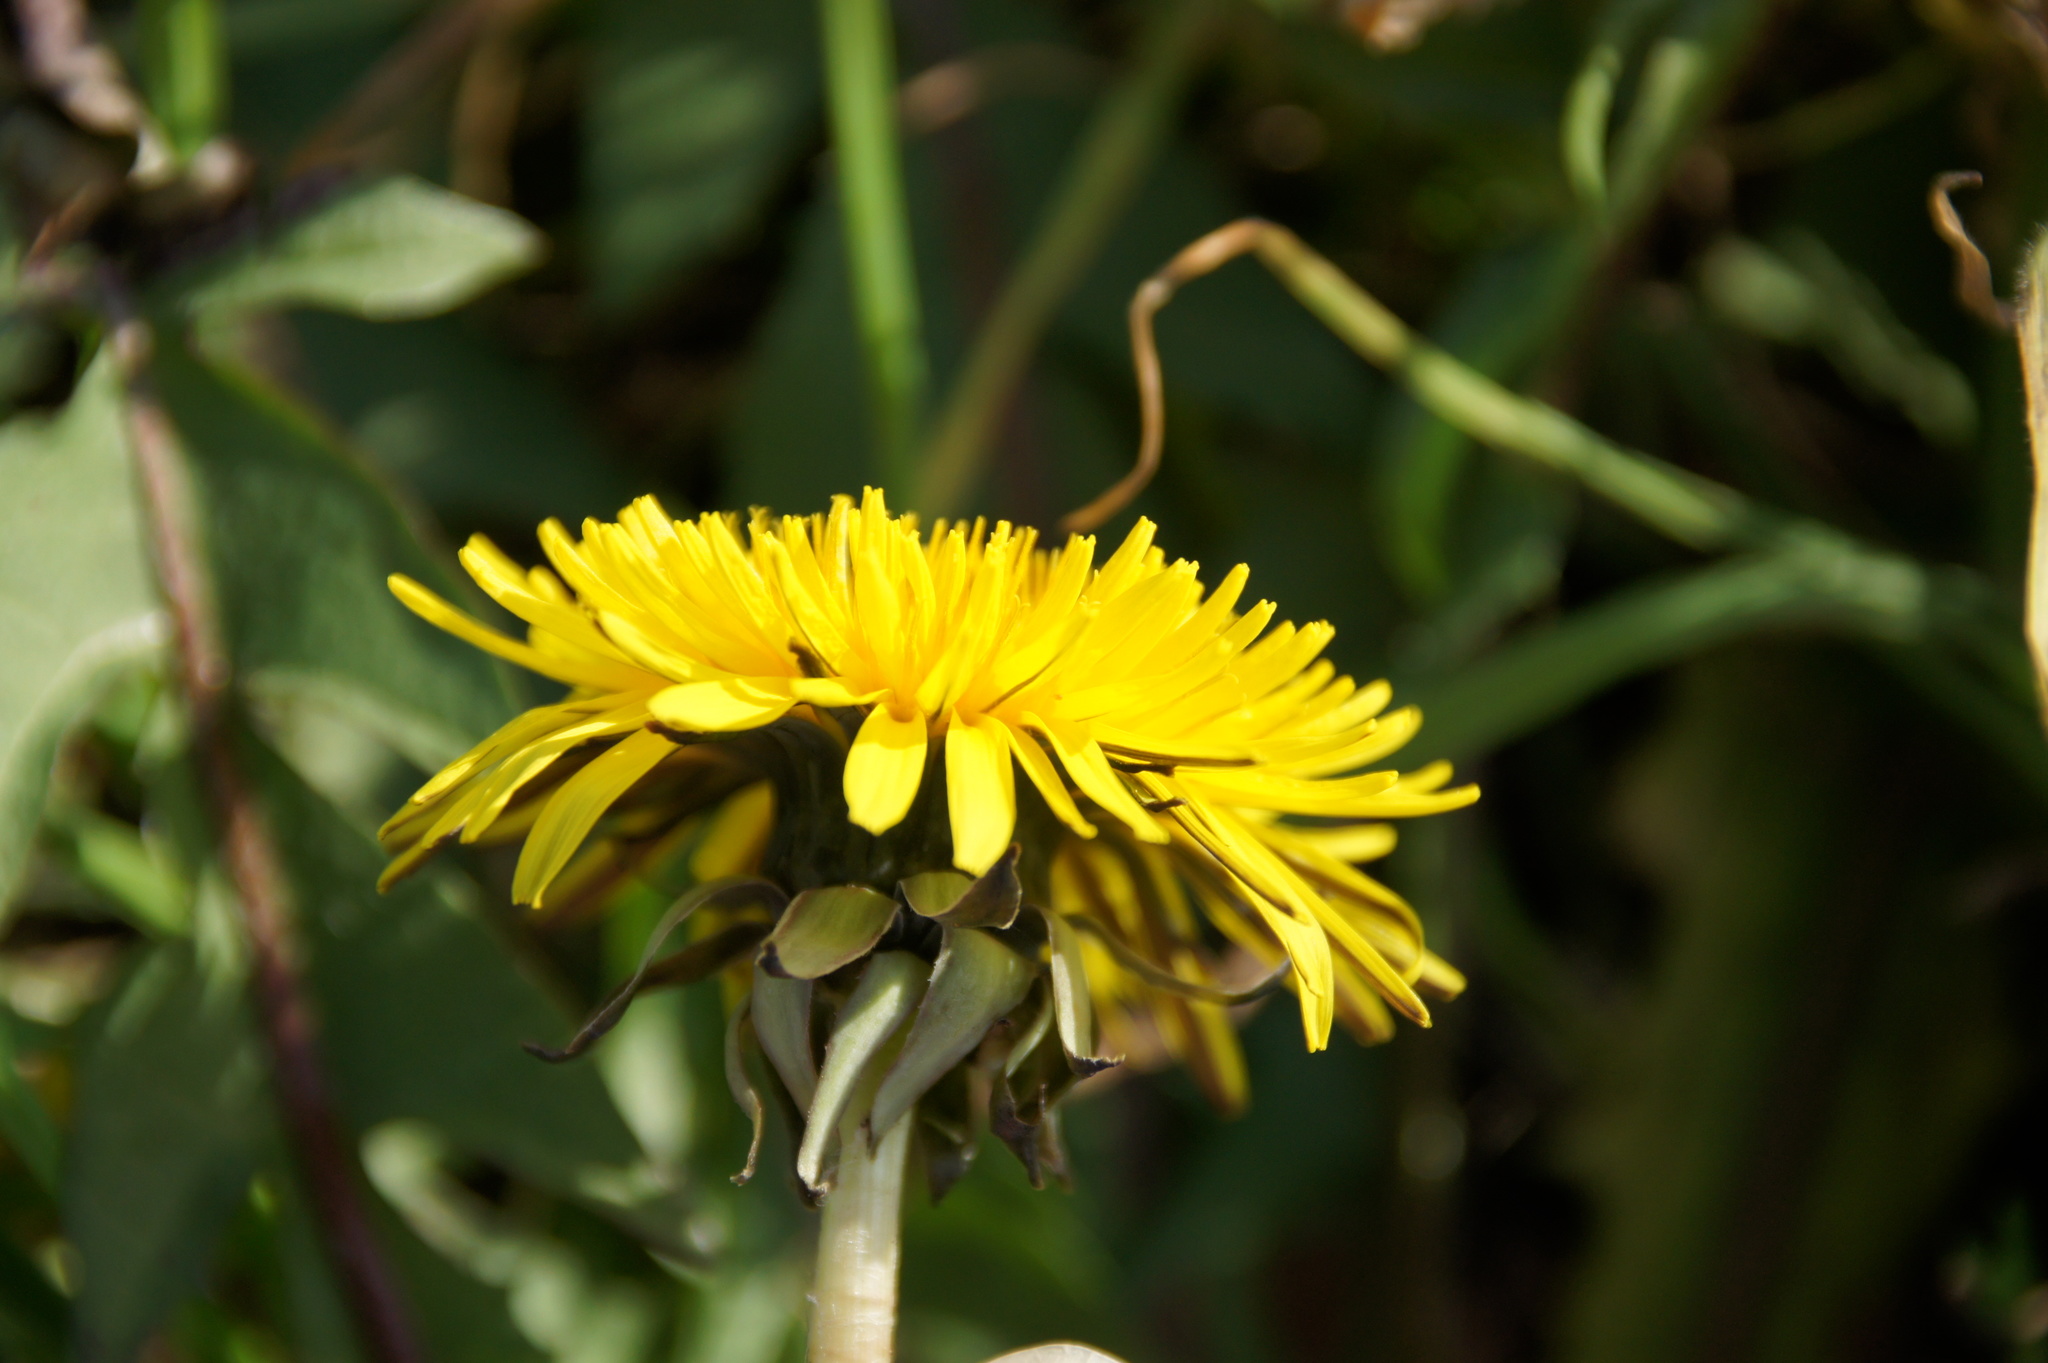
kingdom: Plantae
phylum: Tracheophyta
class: Magnoliopsida
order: Asterales
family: Asteraceae
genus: Taraxacum
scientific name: Taraxacum officinale
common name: Common dandelion
